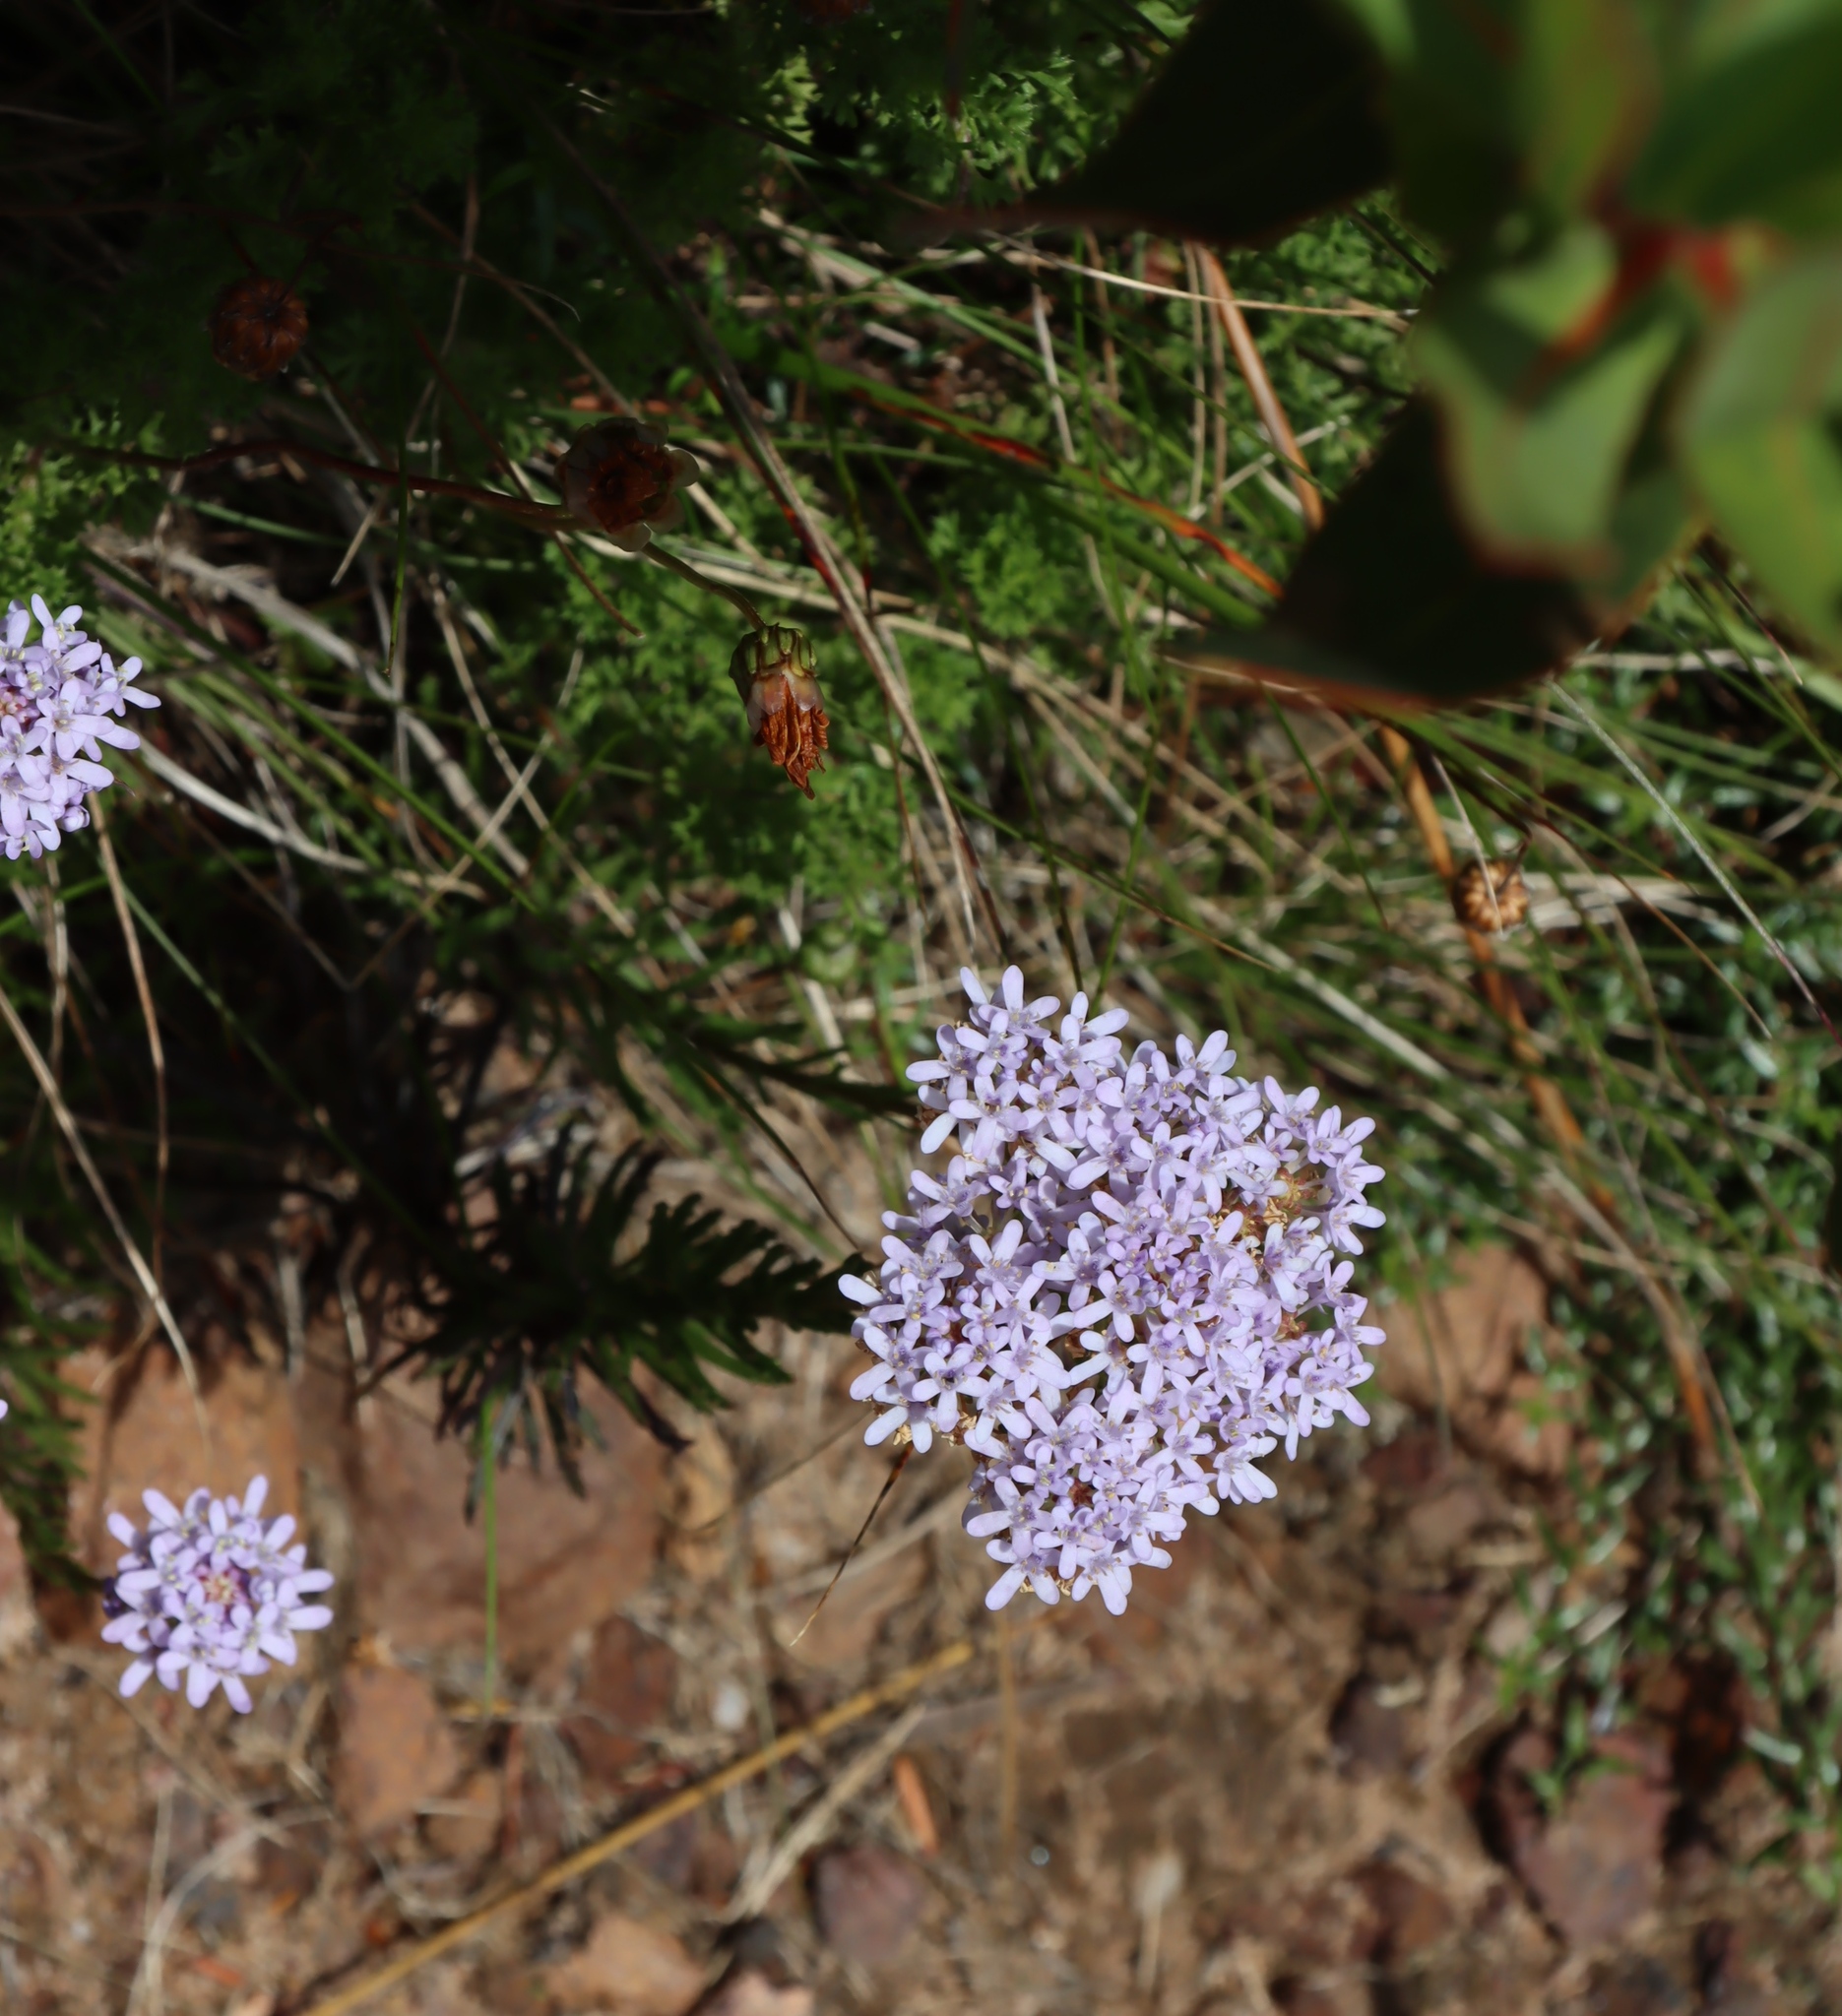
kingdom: Plantae
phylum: Tracheophyta
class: Magnoliopsida
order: Lamiales
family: Scrophulariaceae
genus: Pseudoselago
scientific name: Pseudoselago spuria
